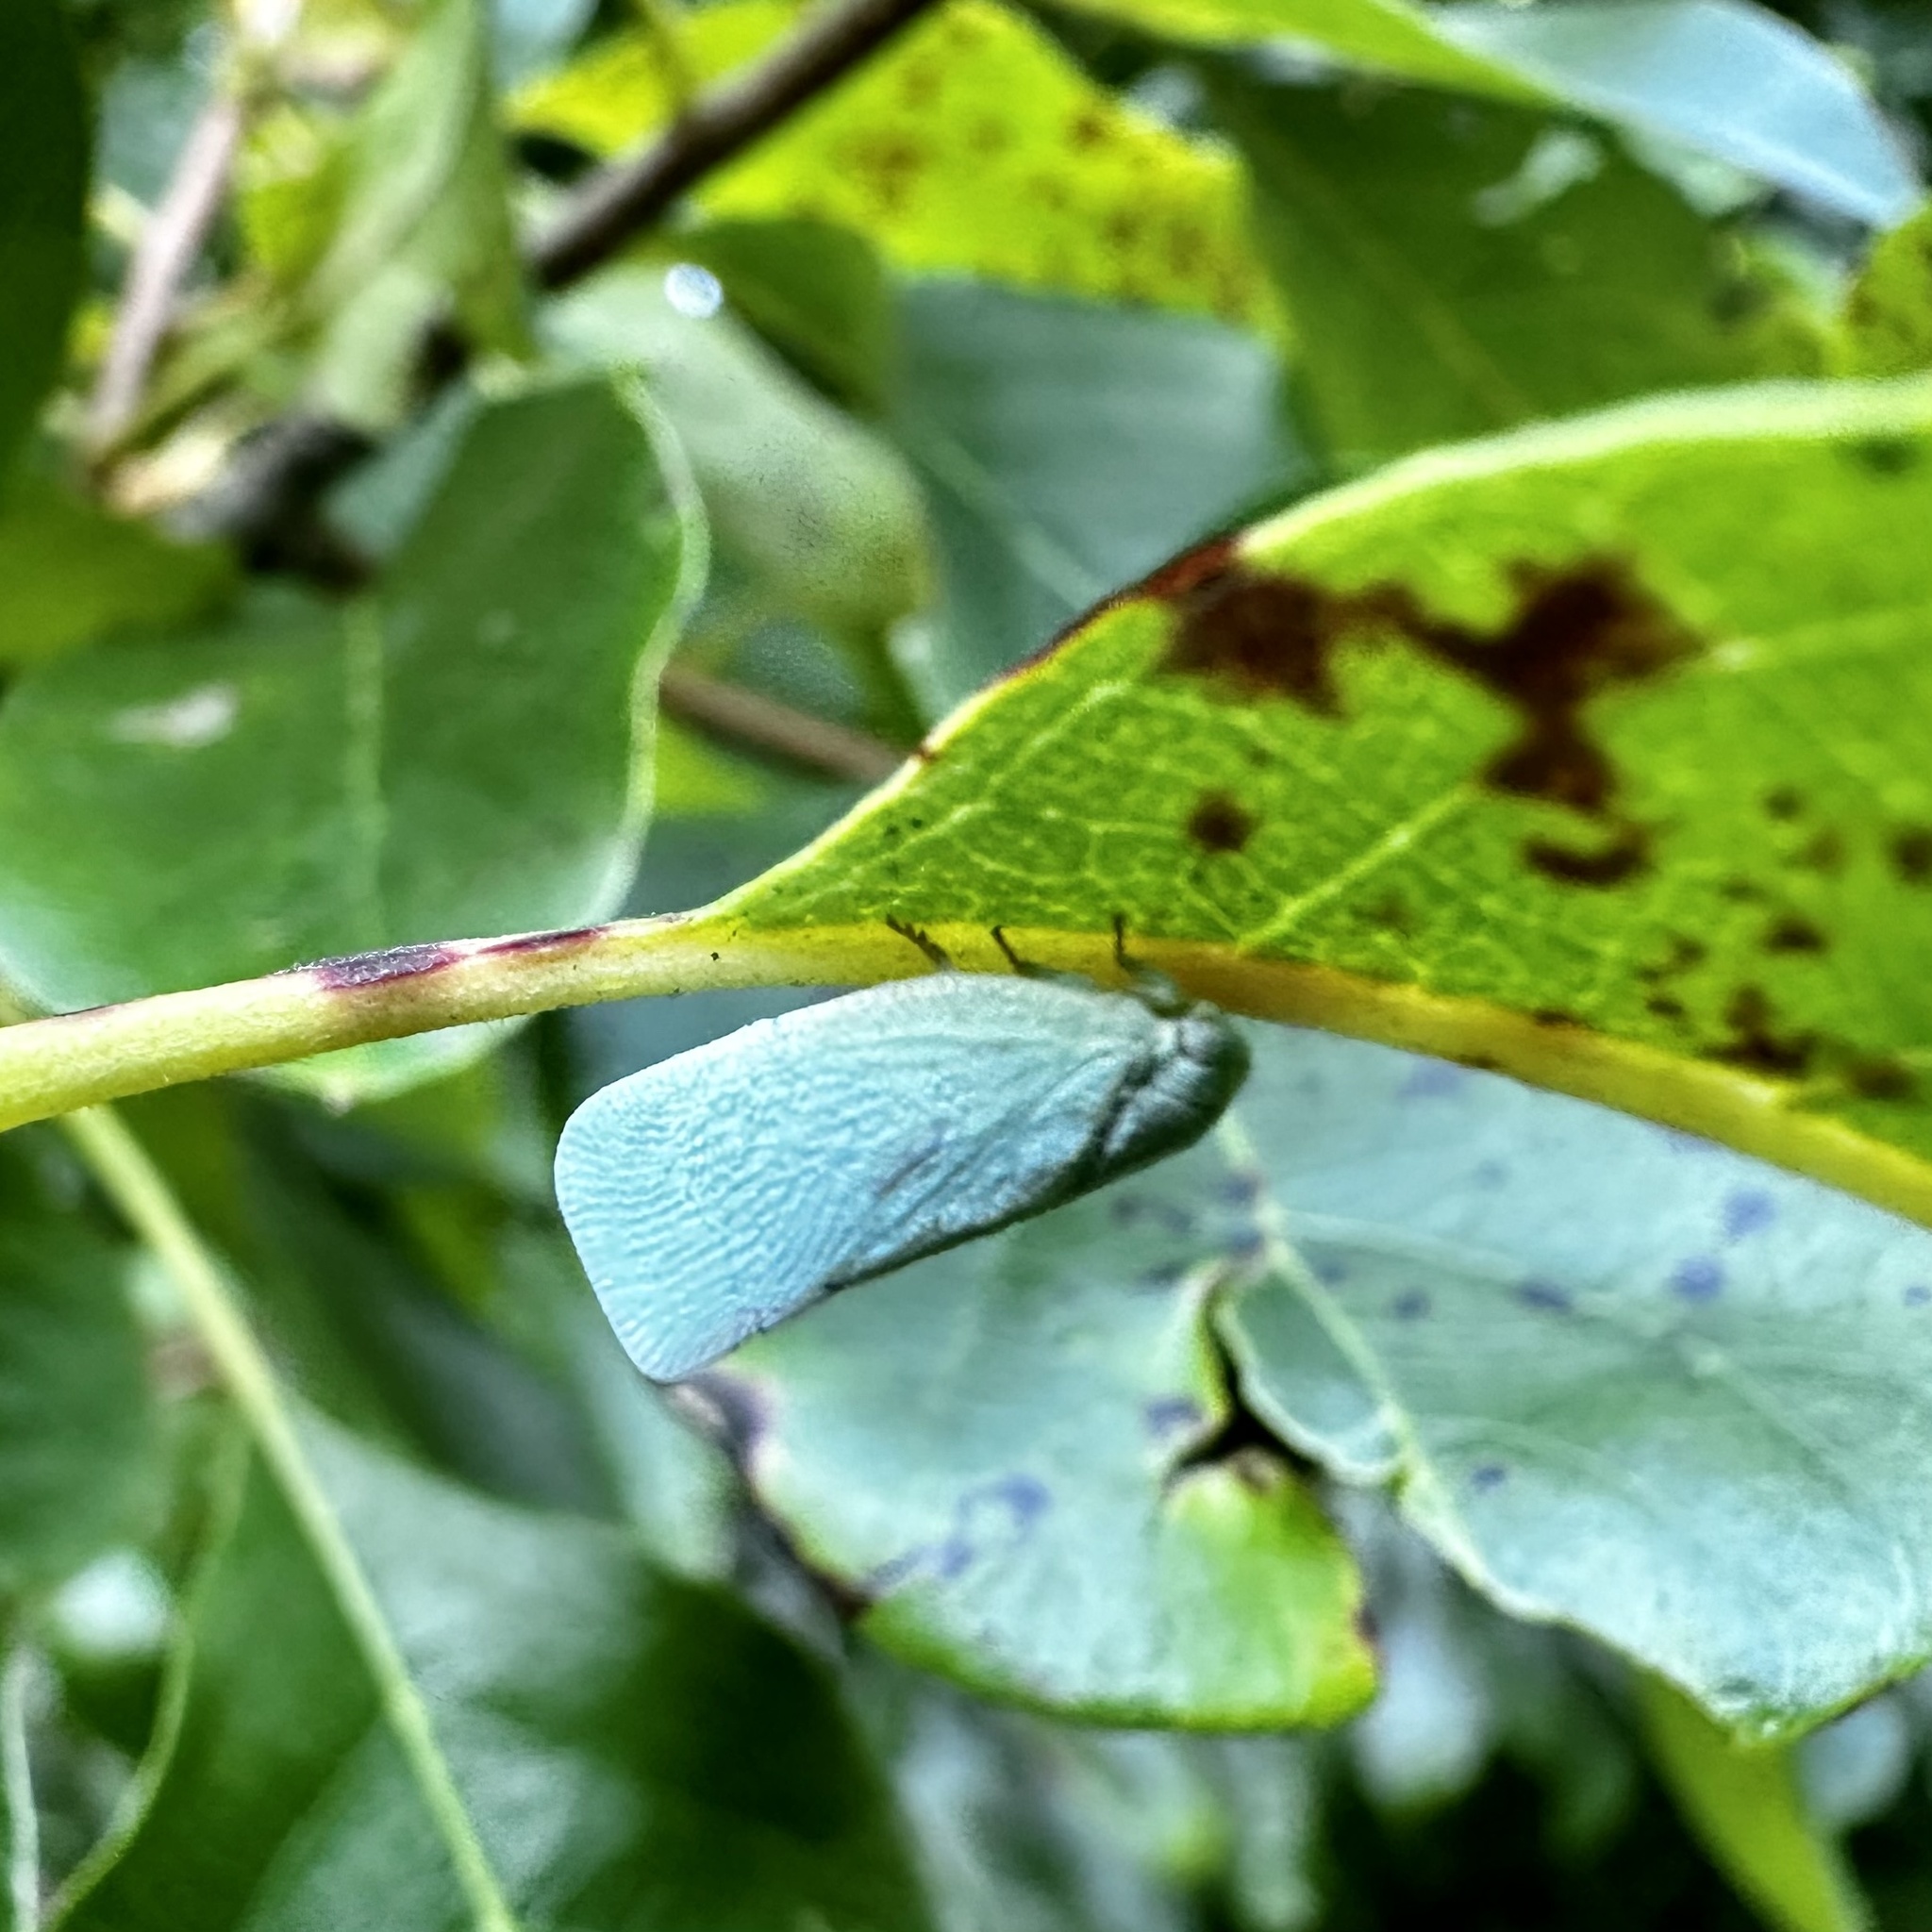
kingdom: Animalia
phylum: Arthropoda
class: Insecta
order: Hemiptera
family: Flatidae
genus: Flatormenis
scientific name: Flatormenis proxima
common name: Northern flatid planthopper
